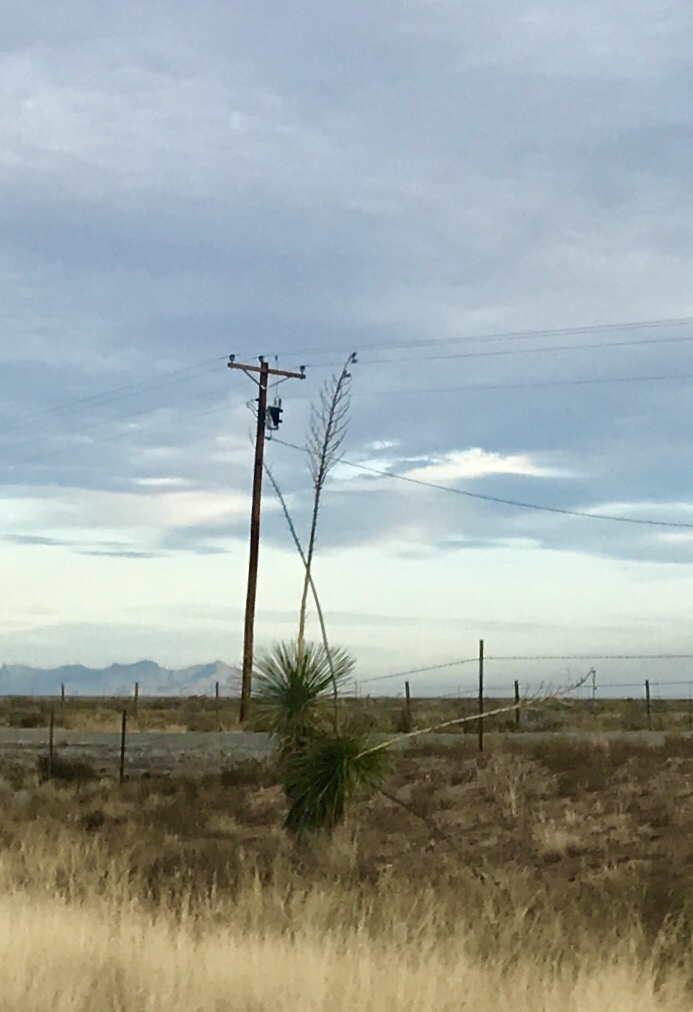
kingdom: Plantae
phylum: Tracheophyta
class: Liliopsida
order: Asparagales
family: Asparagaceae
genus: Yucca
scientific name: Yucca elata
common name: Palmella
